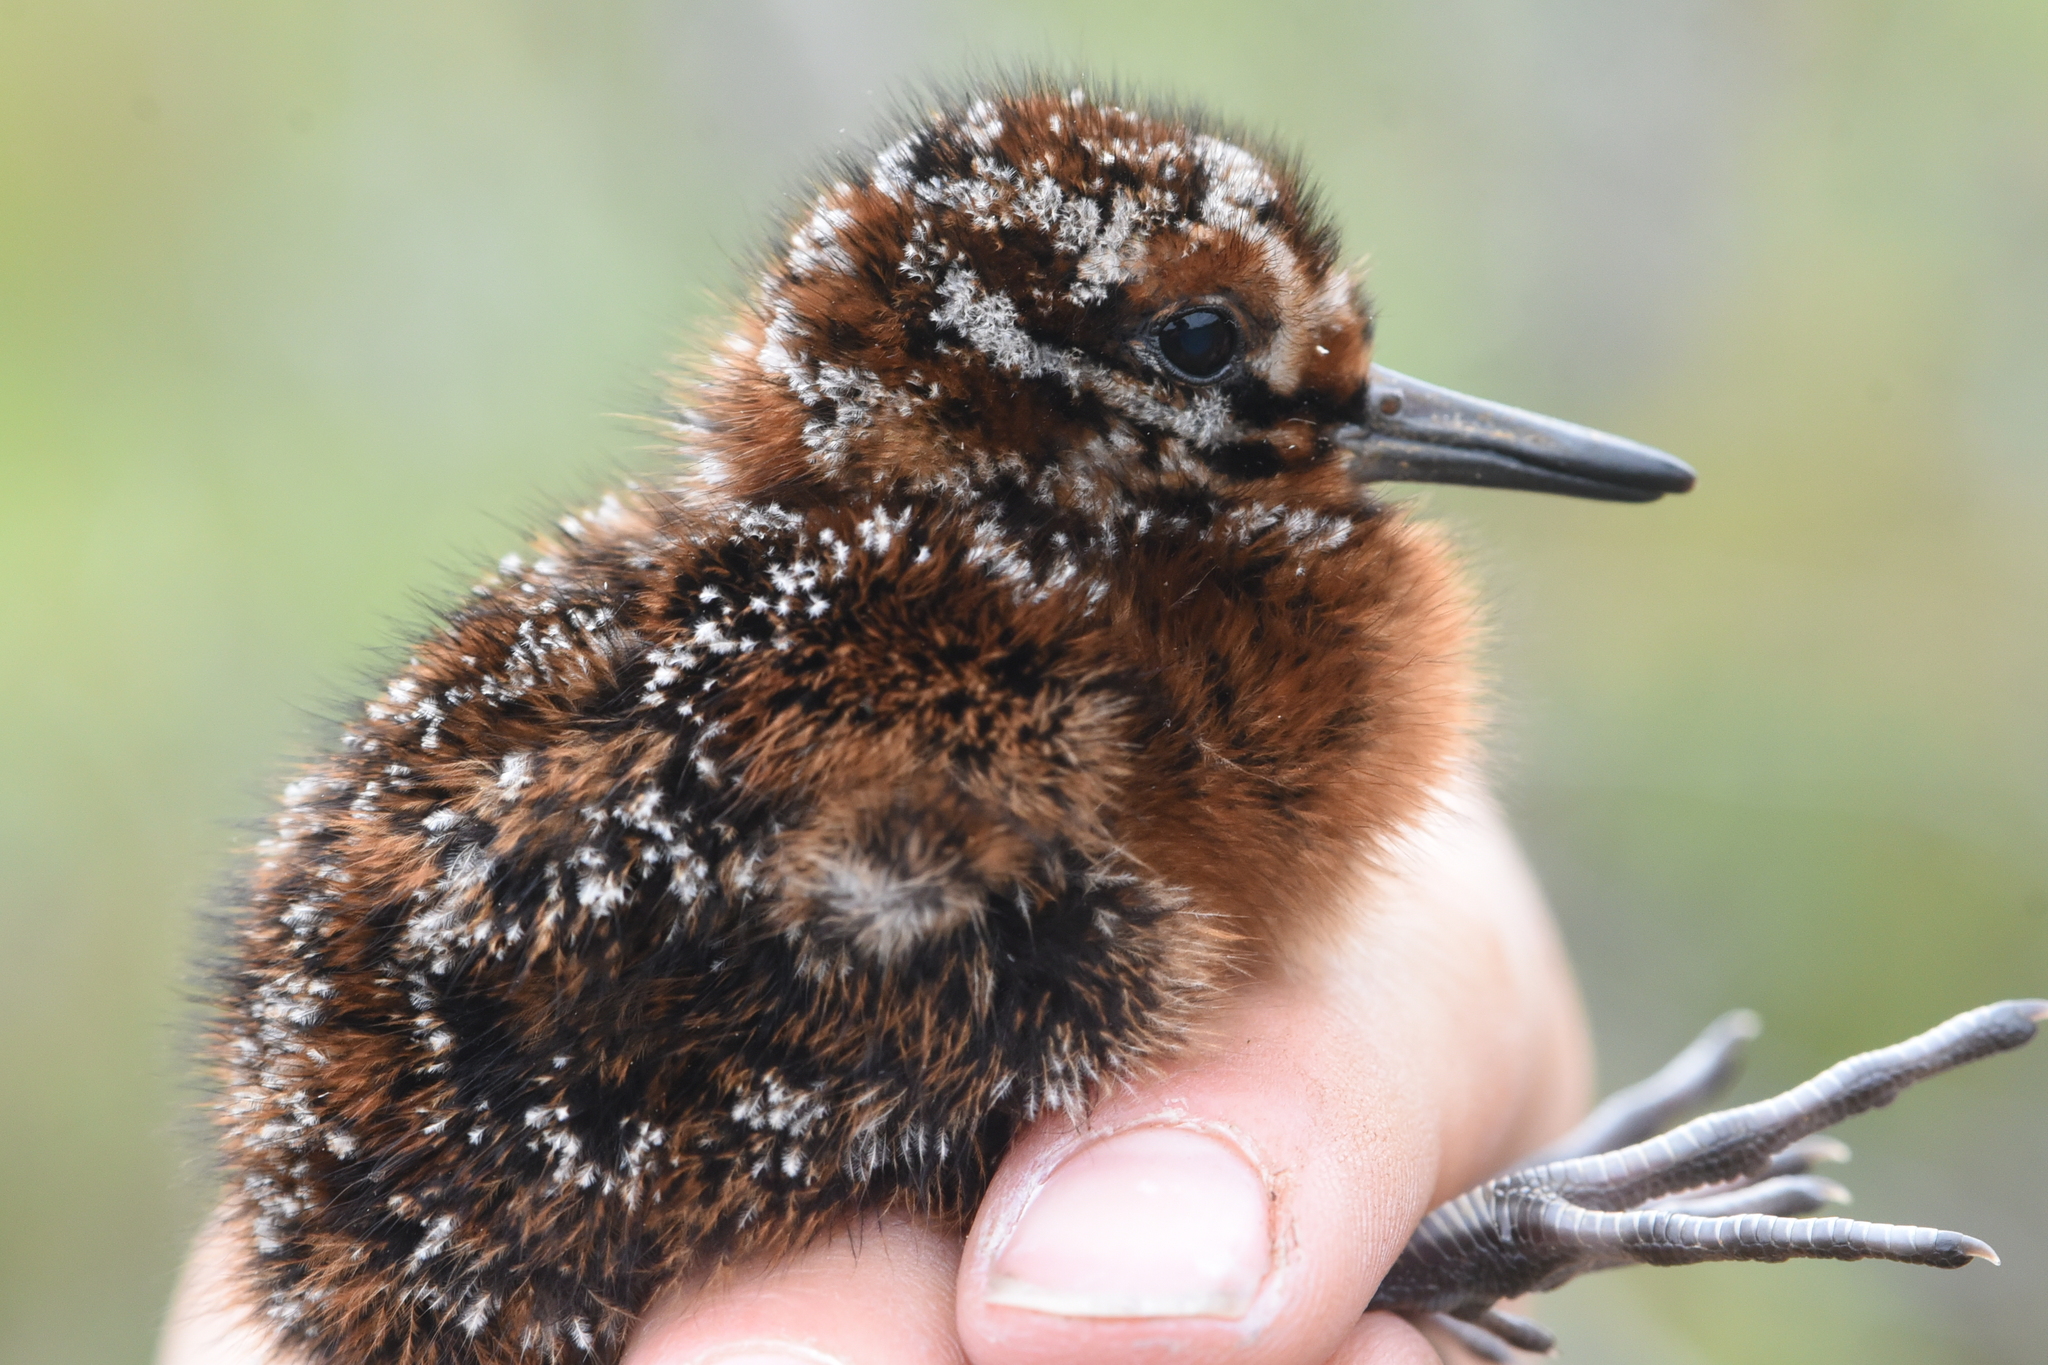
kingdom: Animalia
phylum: Chordata
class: Aves
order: Charadriiformes
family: Scolopacidae
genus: Gallinago
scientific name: Gallinago delicata
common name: Wilson's snipe
